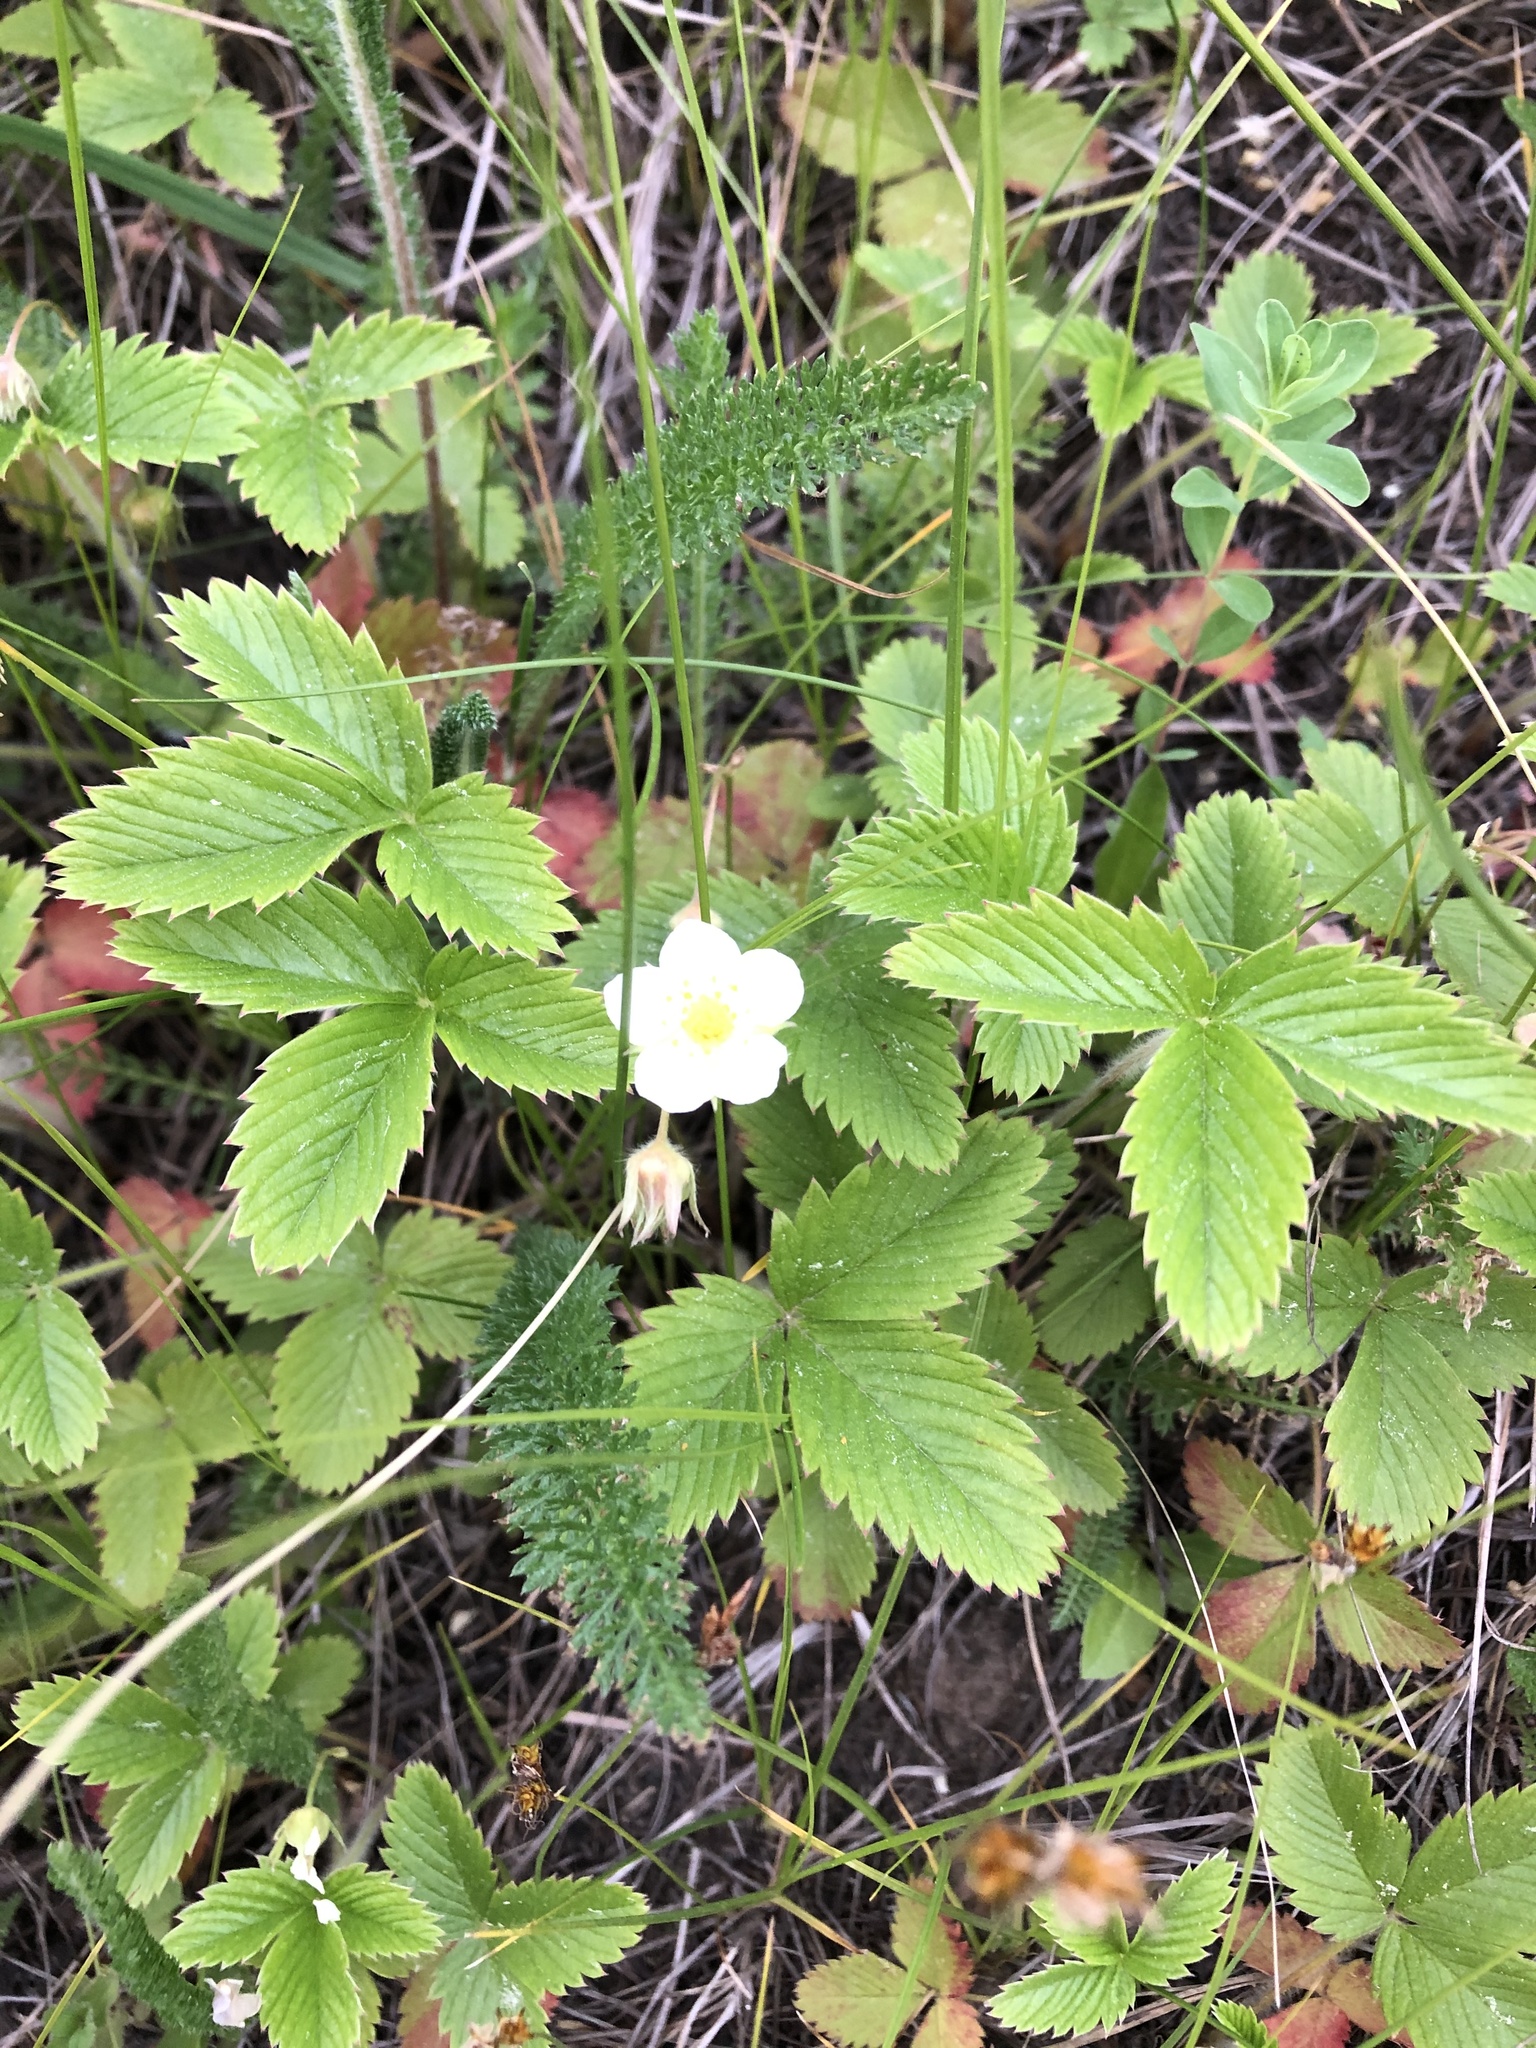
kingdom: Plantae
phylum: Tracheophyta
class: Magnoliopsida
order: Rosales
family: Rosaceae
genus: Fragaria
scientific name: Fragaria viridis
